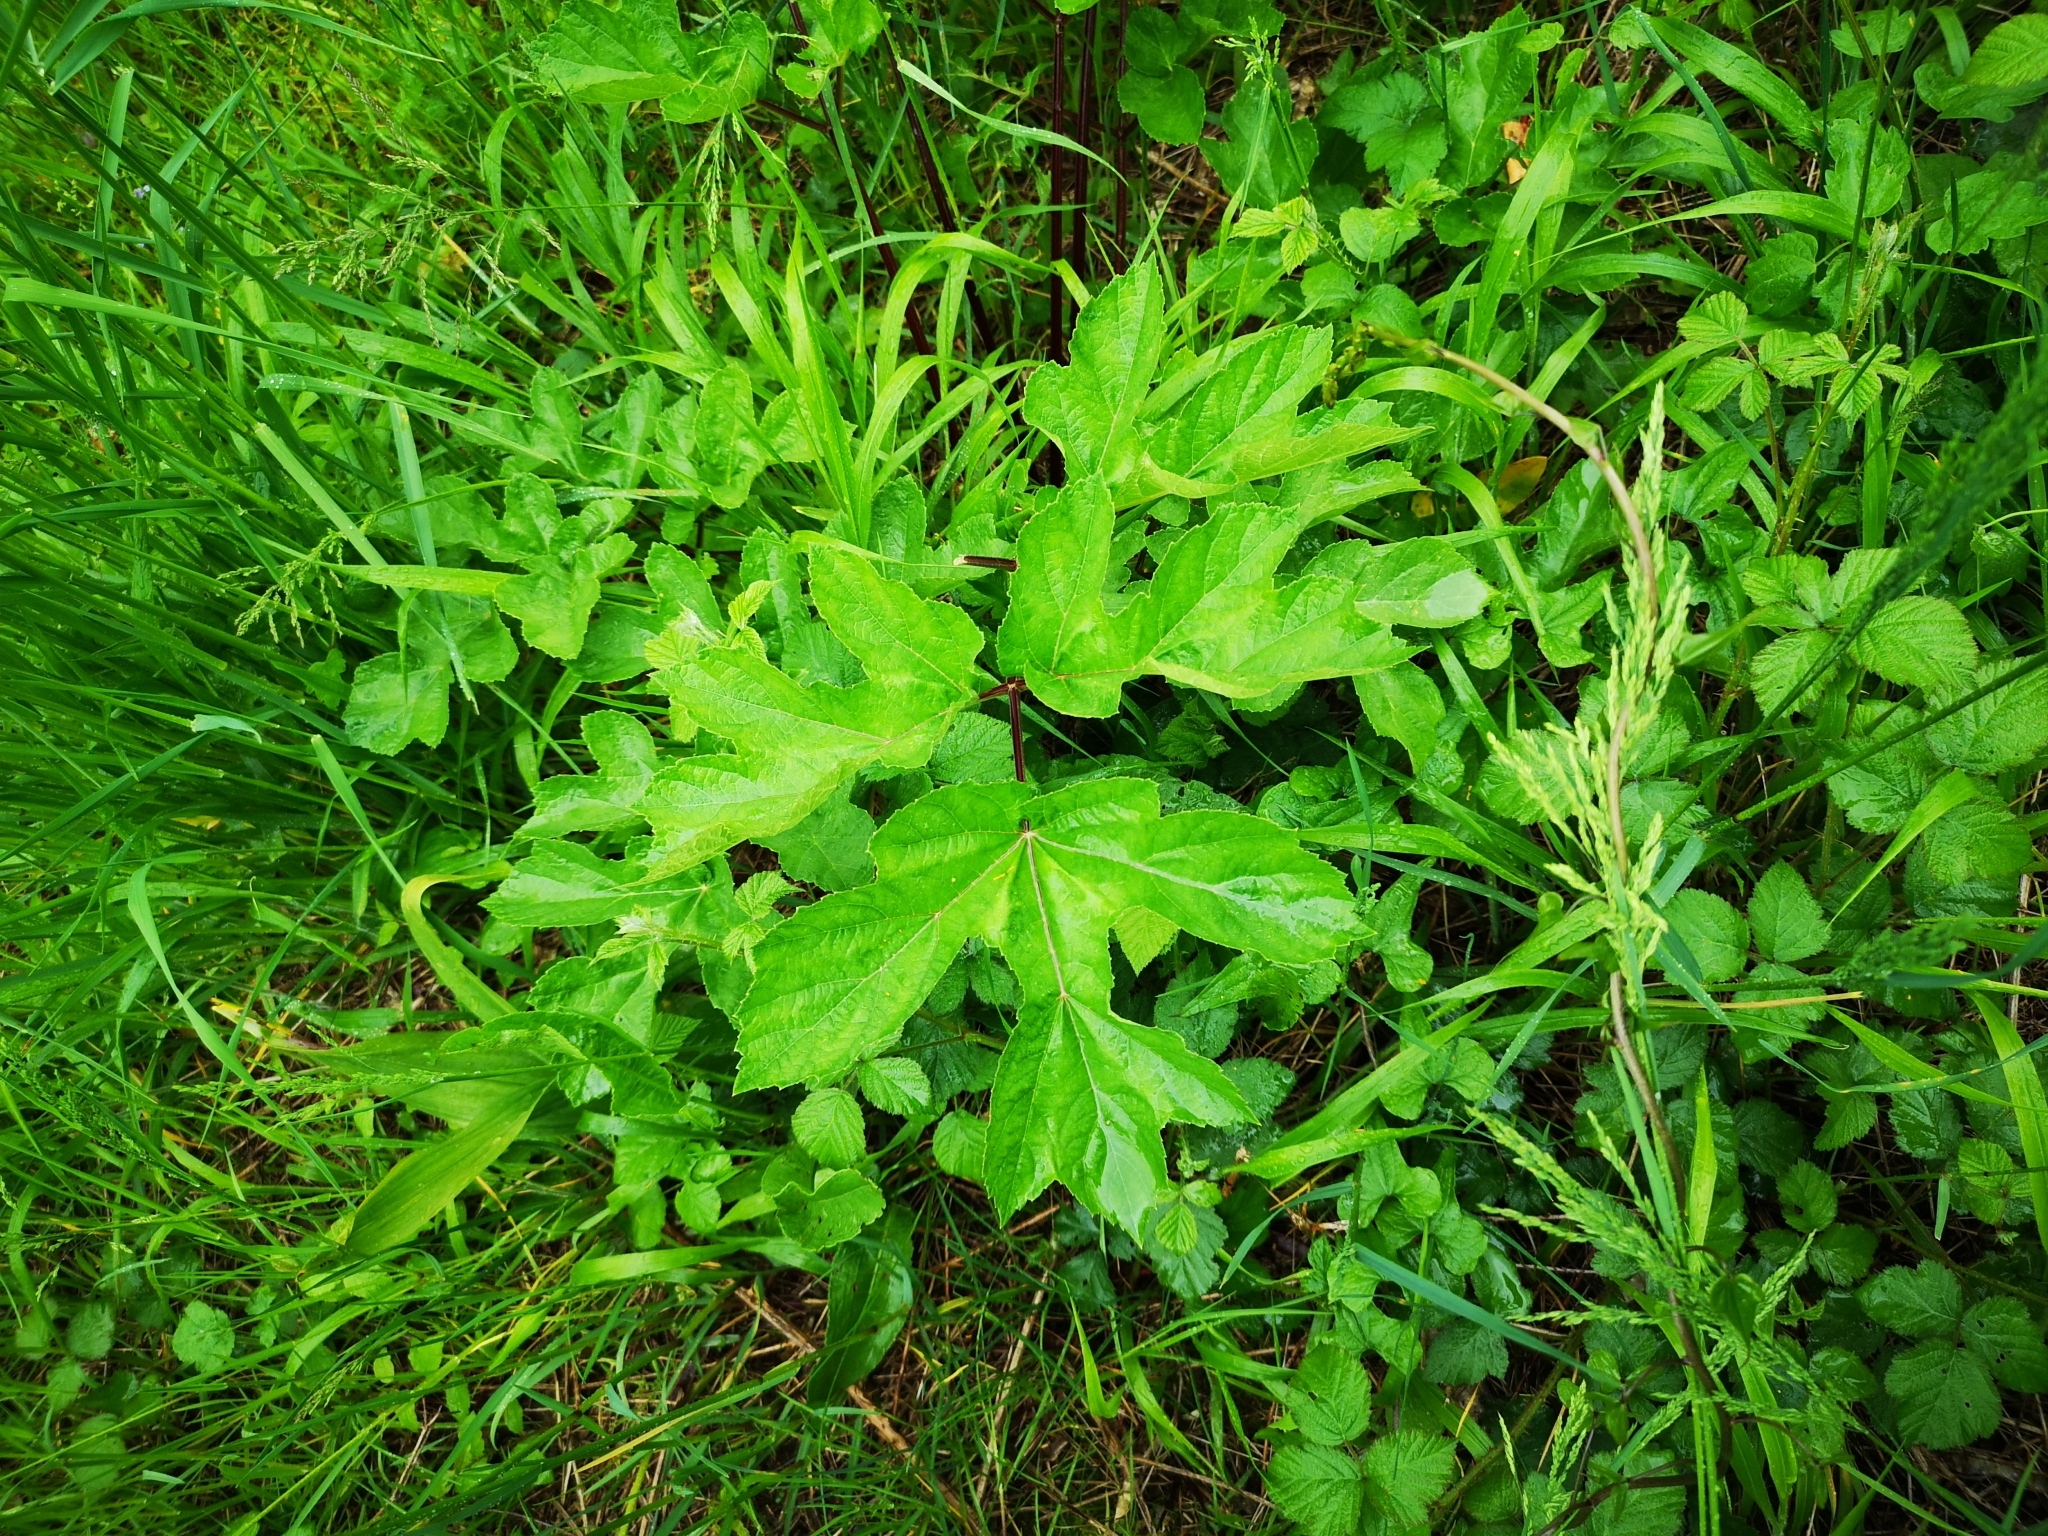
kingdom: Plantae
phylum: Tracheophyta
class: Magnoliopsida
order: Apiales
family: Apiaceae
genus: Heracleum
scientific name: Heracleum sphondylium
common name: Hogweed
